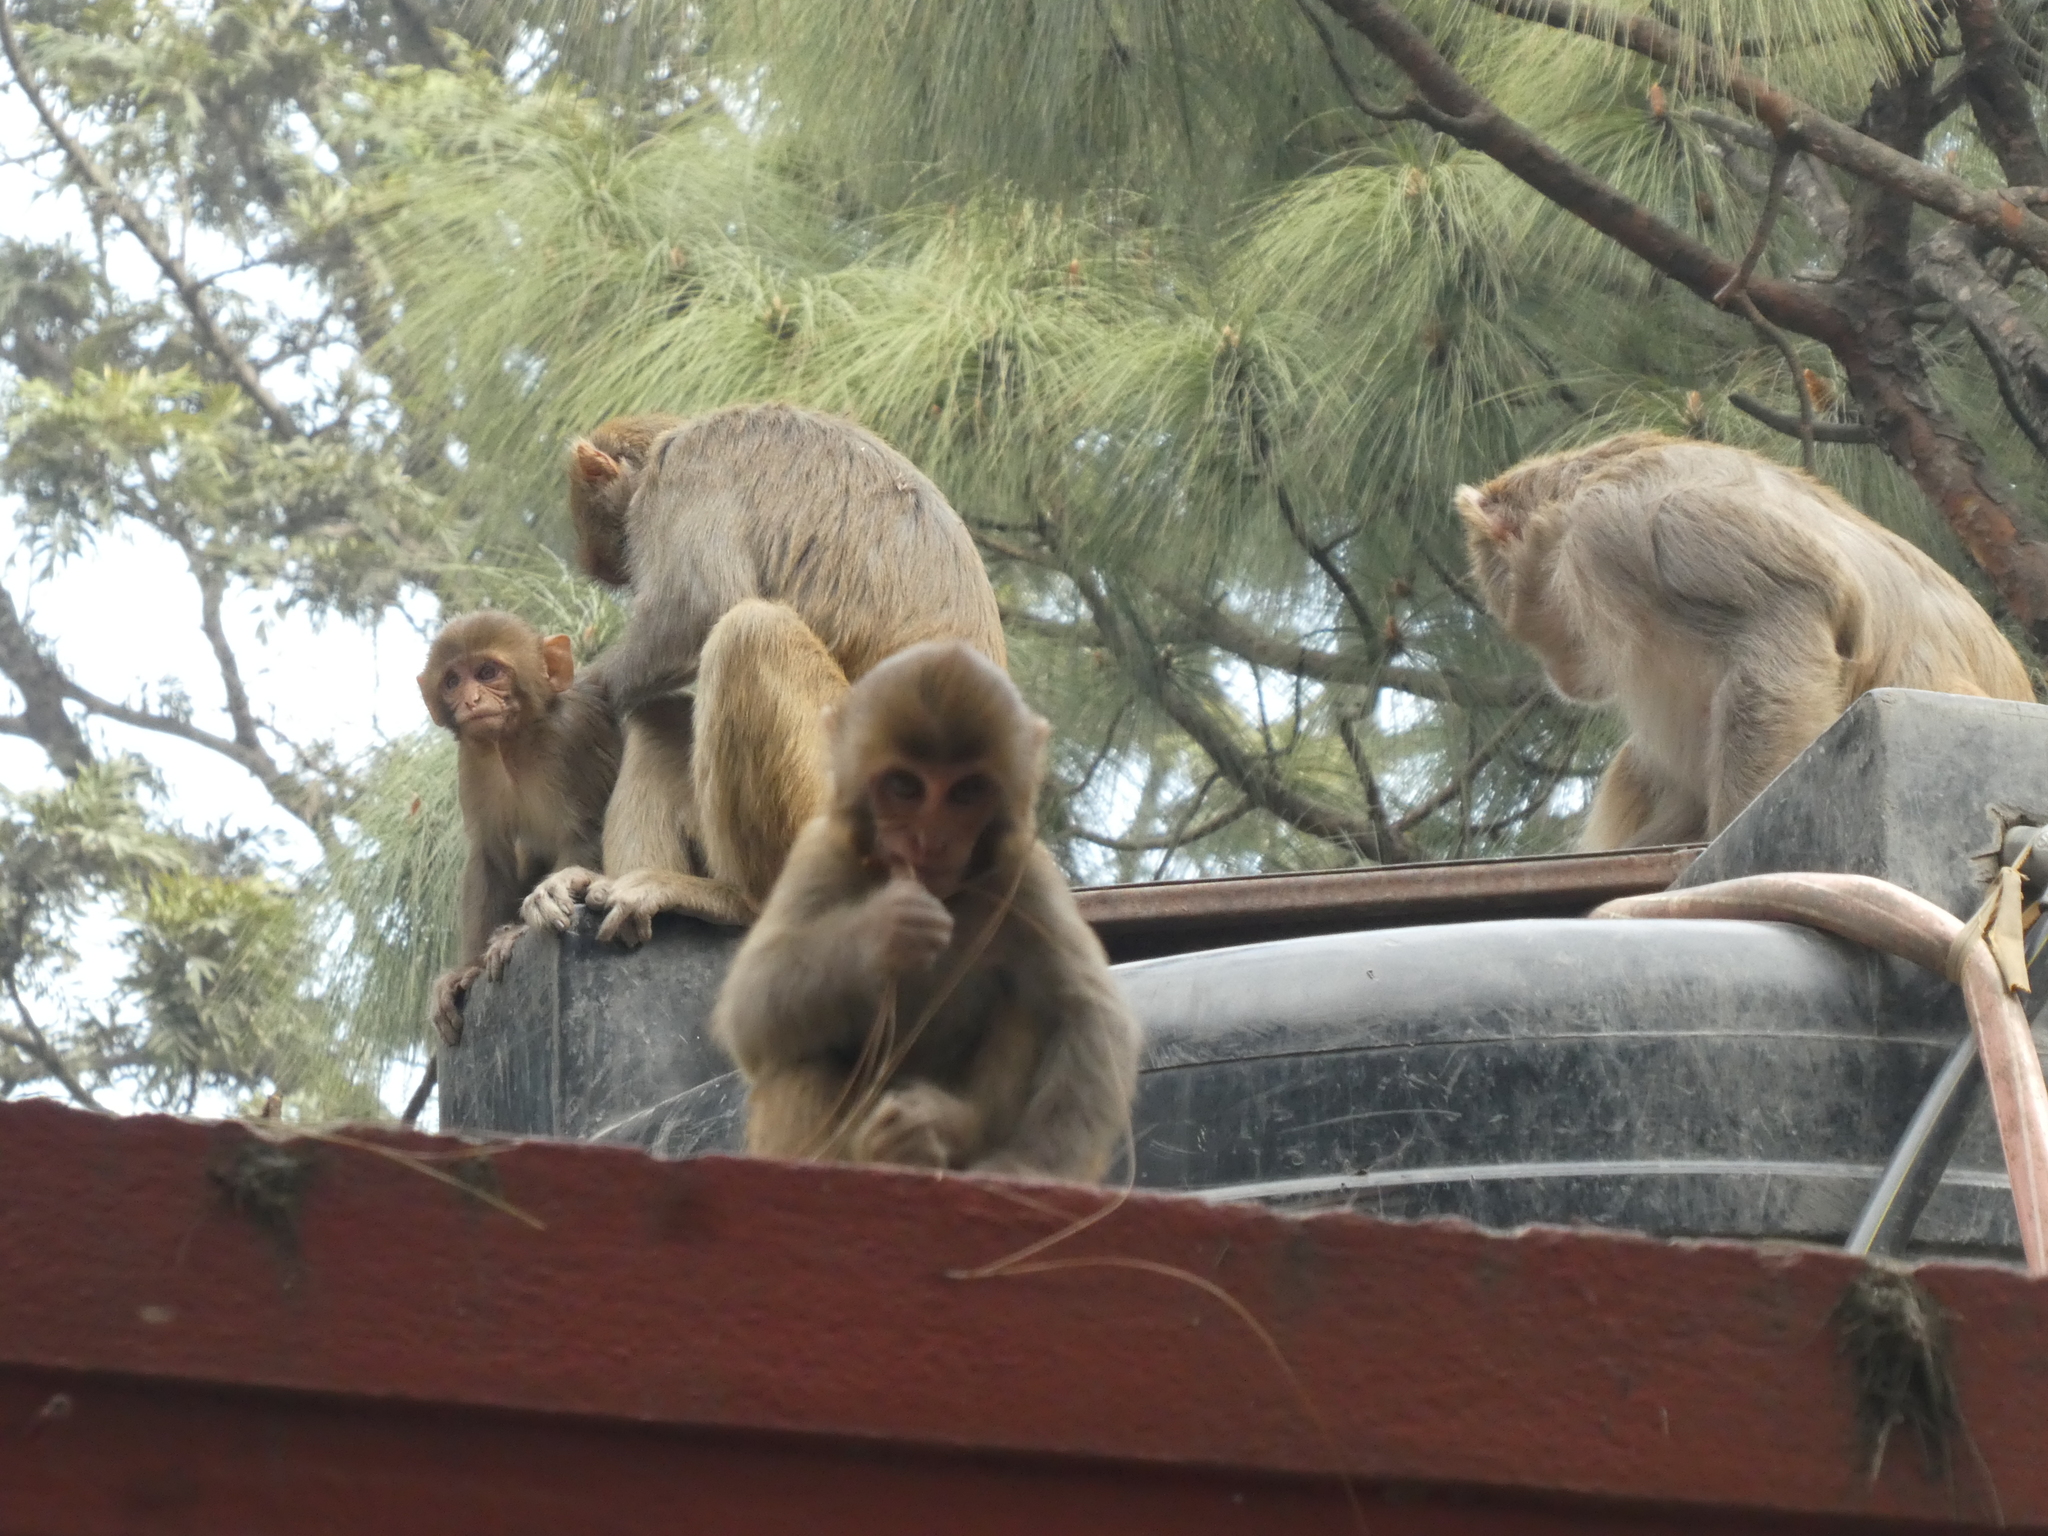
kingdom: Animalia
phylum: Chordata
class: Mammalia
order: Primates
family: Cercopithecidae
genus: Macaca
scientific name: Macaca mulatta
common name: Rhesus monkey
